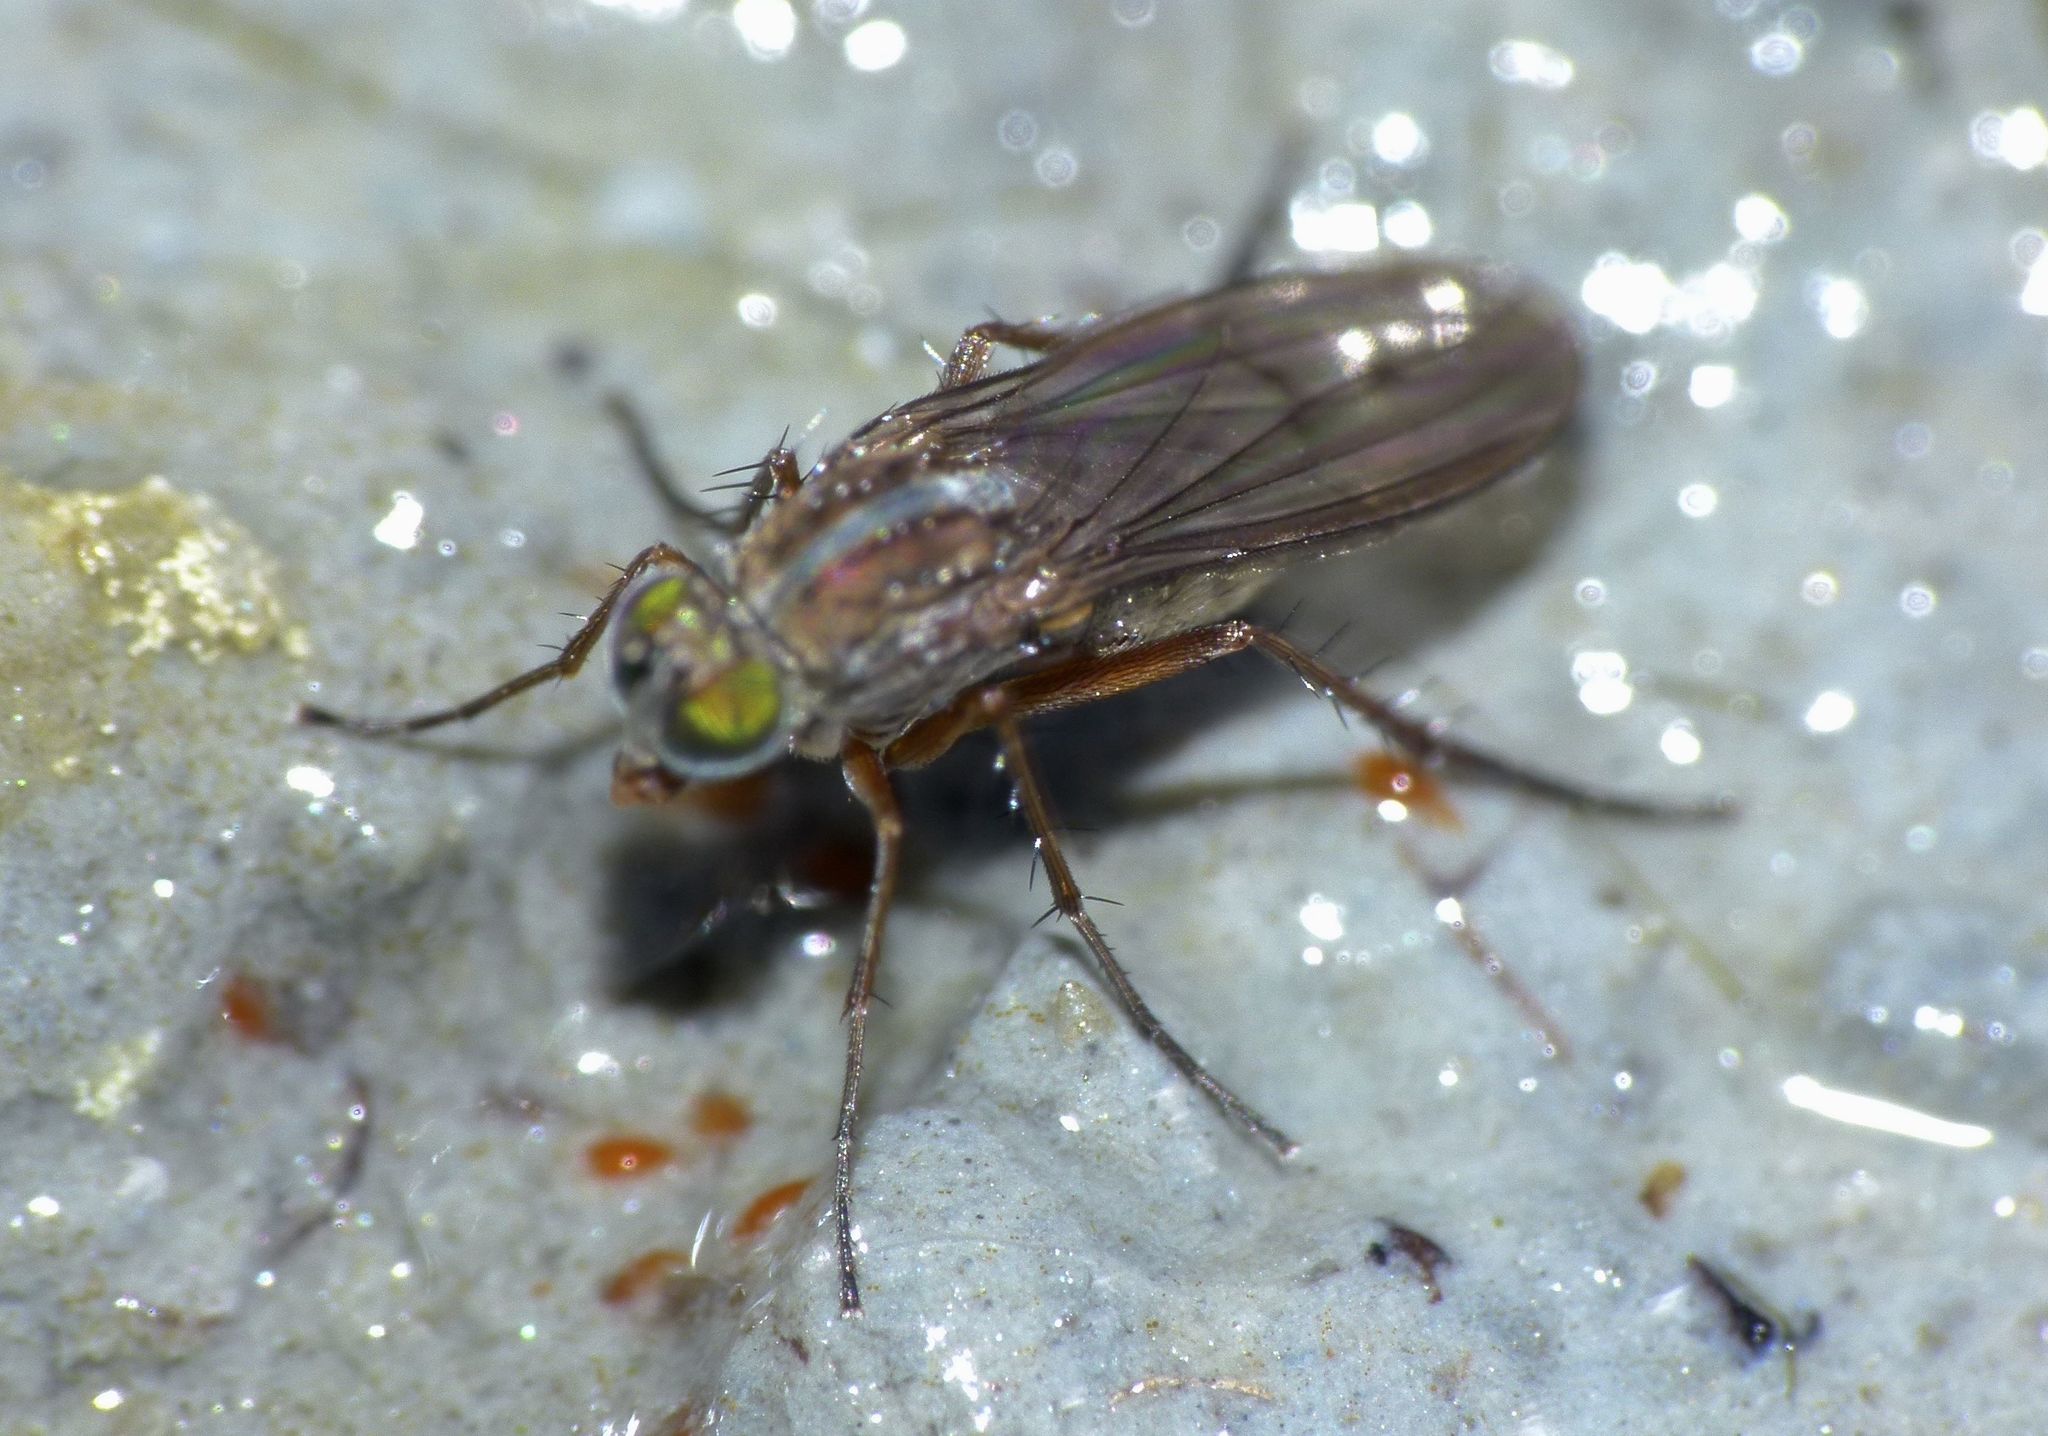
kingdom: Animalia
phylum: Arthropoda
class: Insecta
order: Diptera
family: Dolichopodidae
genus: Tetrachaetus
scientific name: Tetrachaetus bipunctatus
